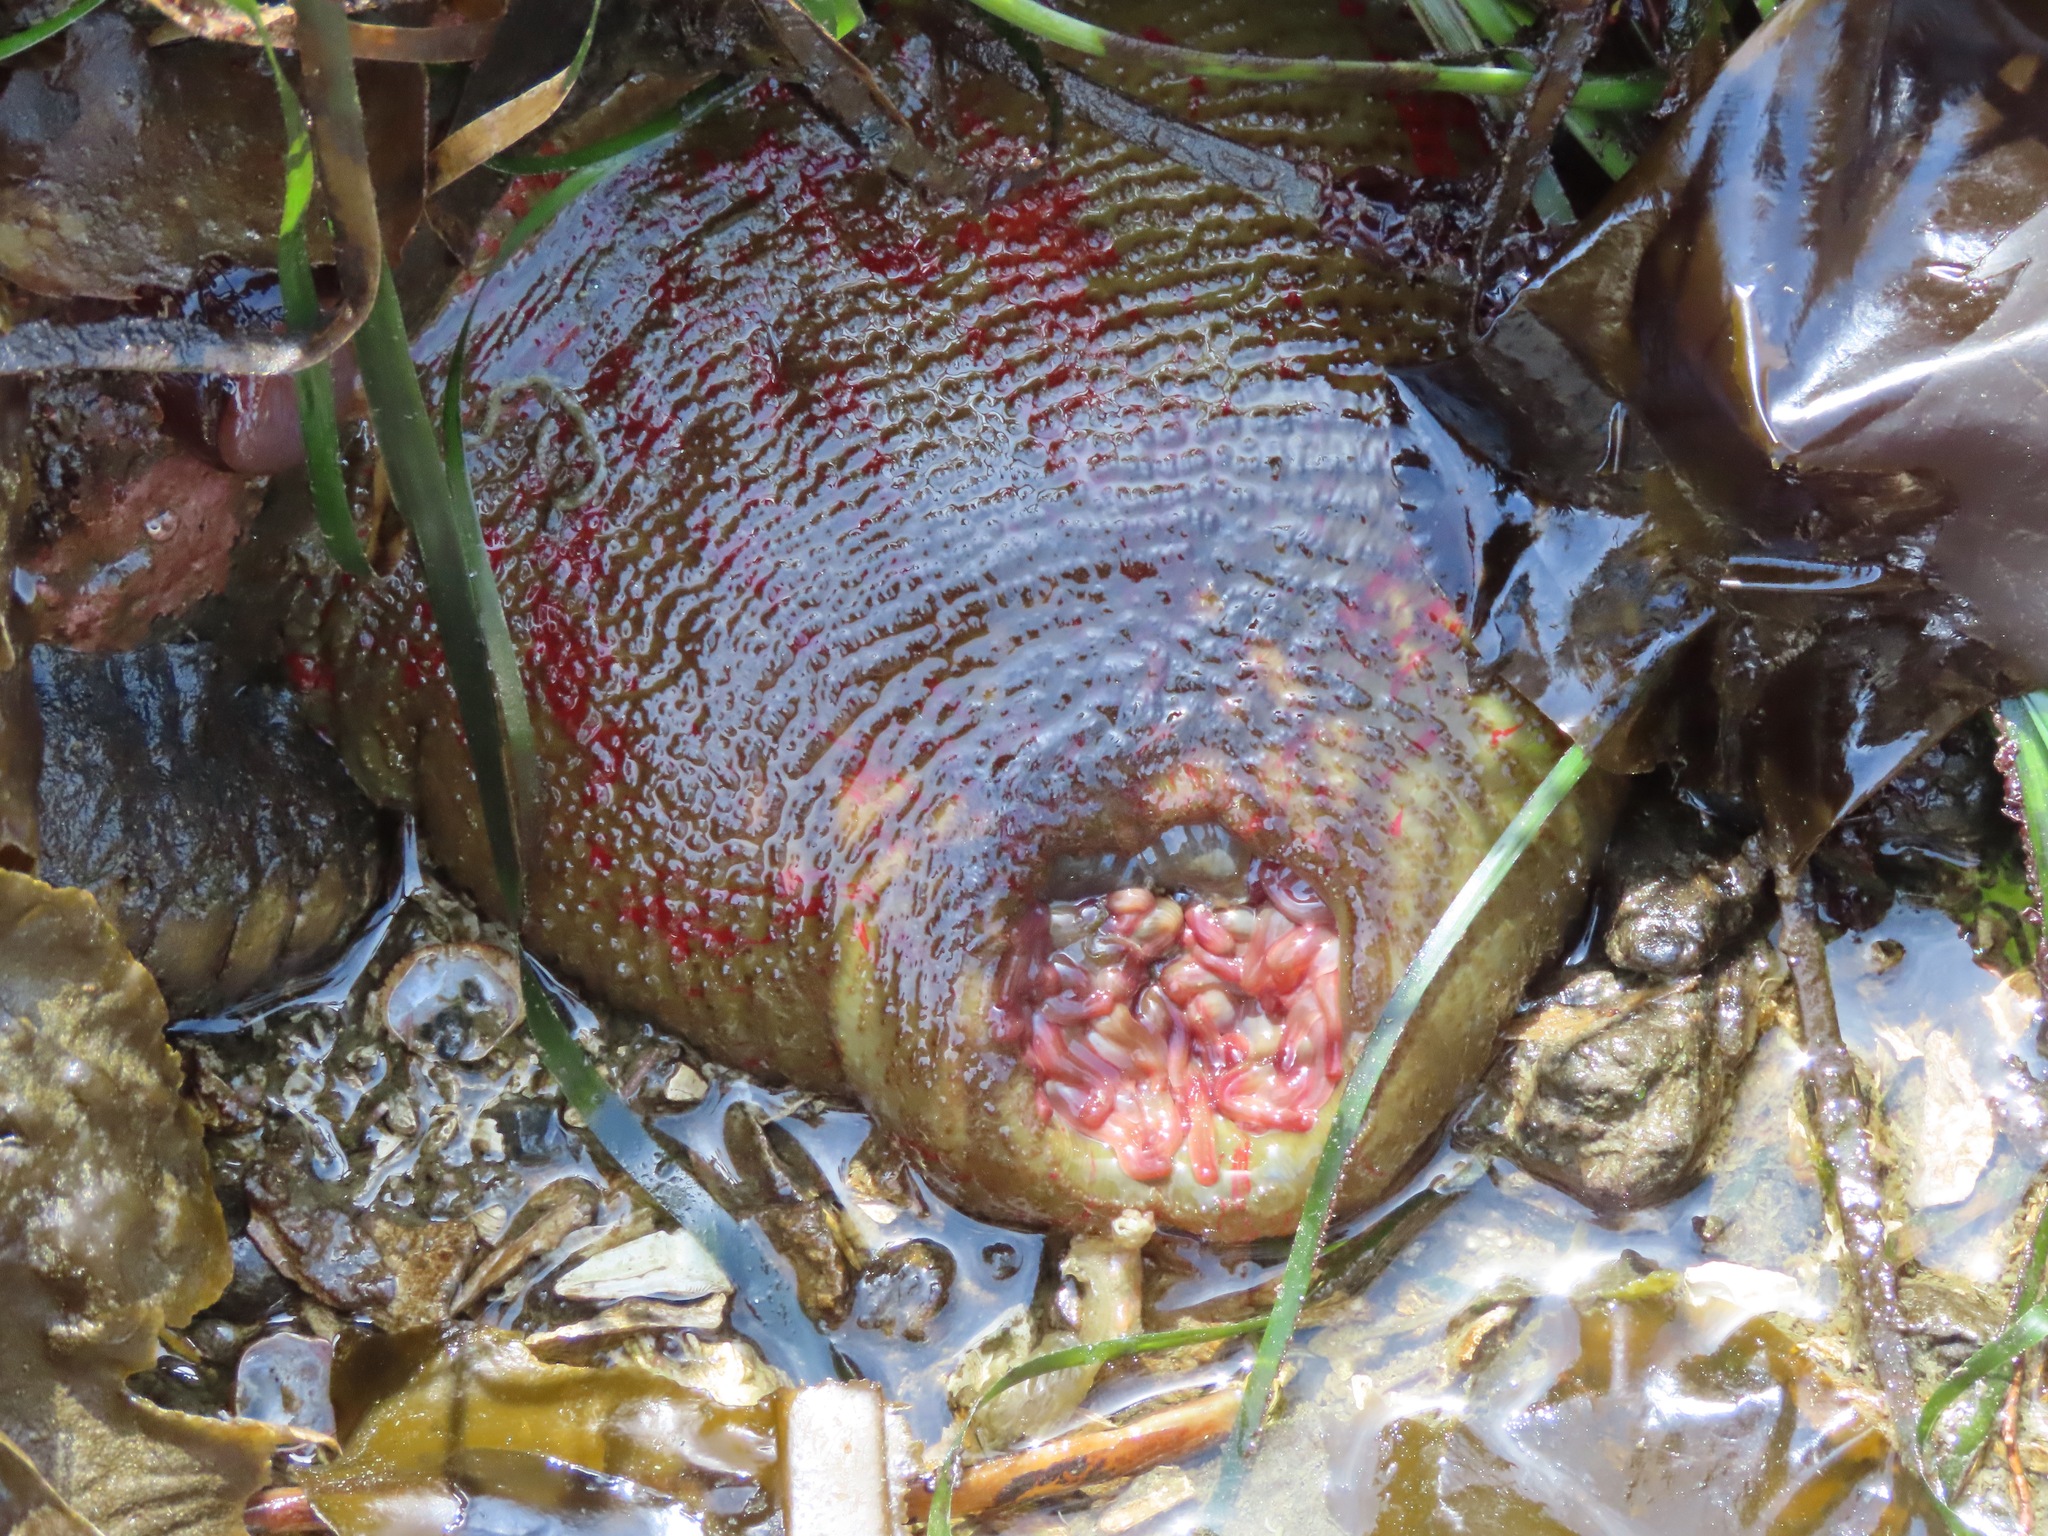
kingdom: Animalia
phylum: Cnidaria
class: Anthozoa
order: Actiniaria
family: Actiniidae
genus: Urticina
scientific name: Urticina grebelnyi
